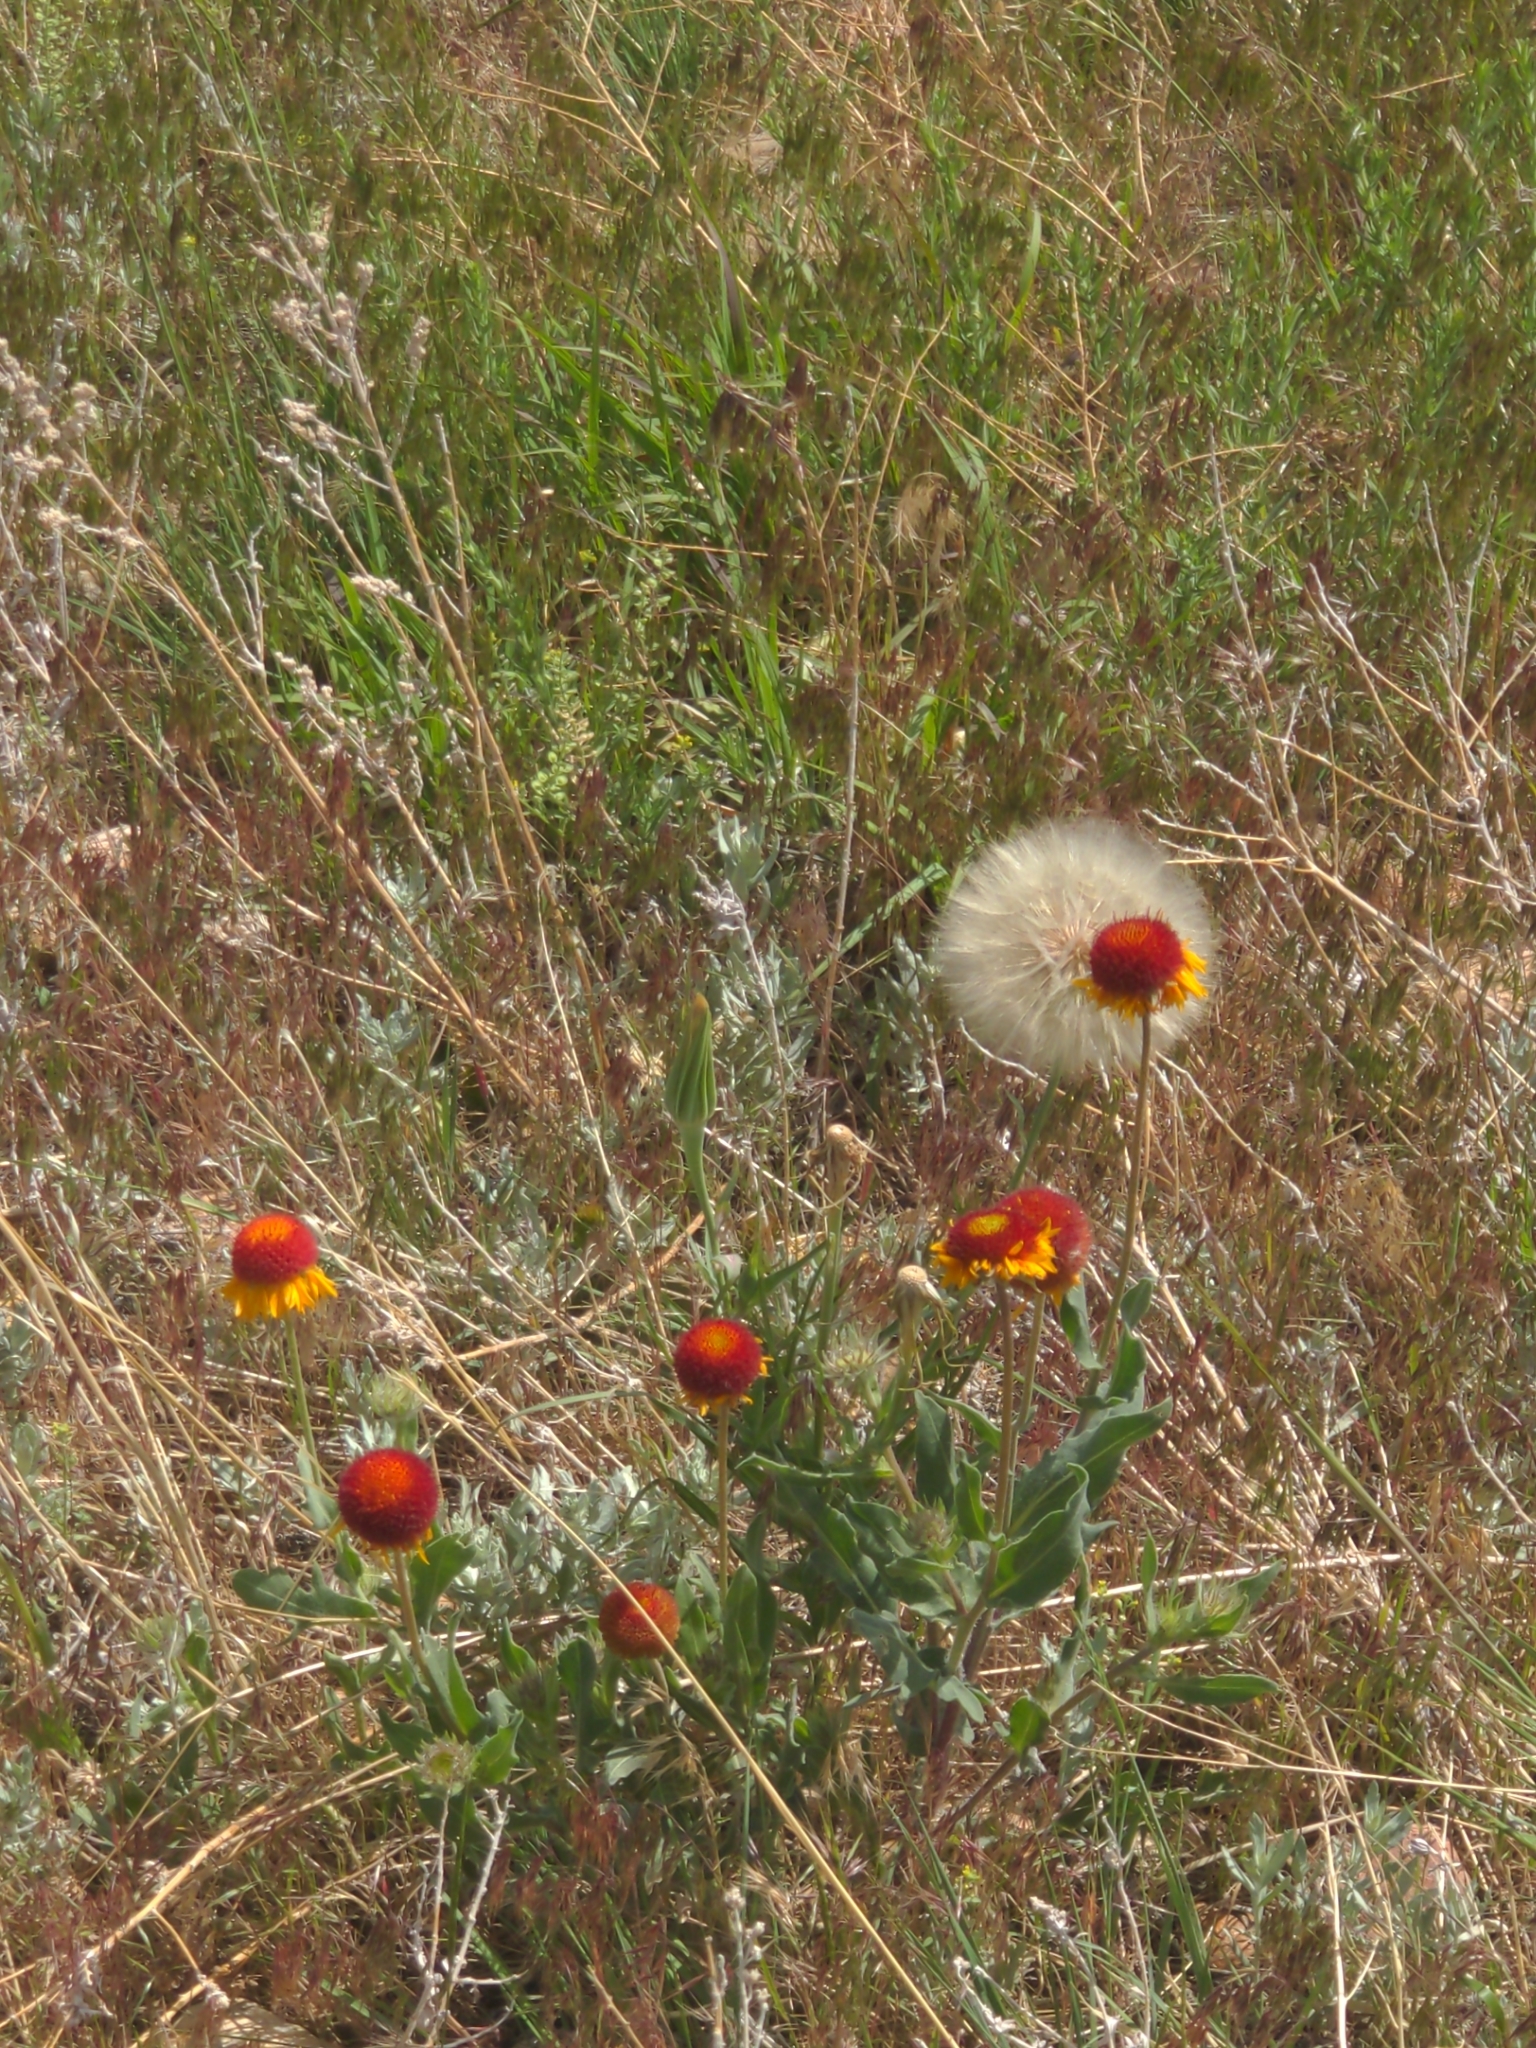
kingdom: Plantae
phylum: Tracheophyta
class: Magnoliopsida
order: Asterales
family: Asteraceae
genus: Gaillardia
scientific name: Gaillardia aristata
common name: Blanket-flower
